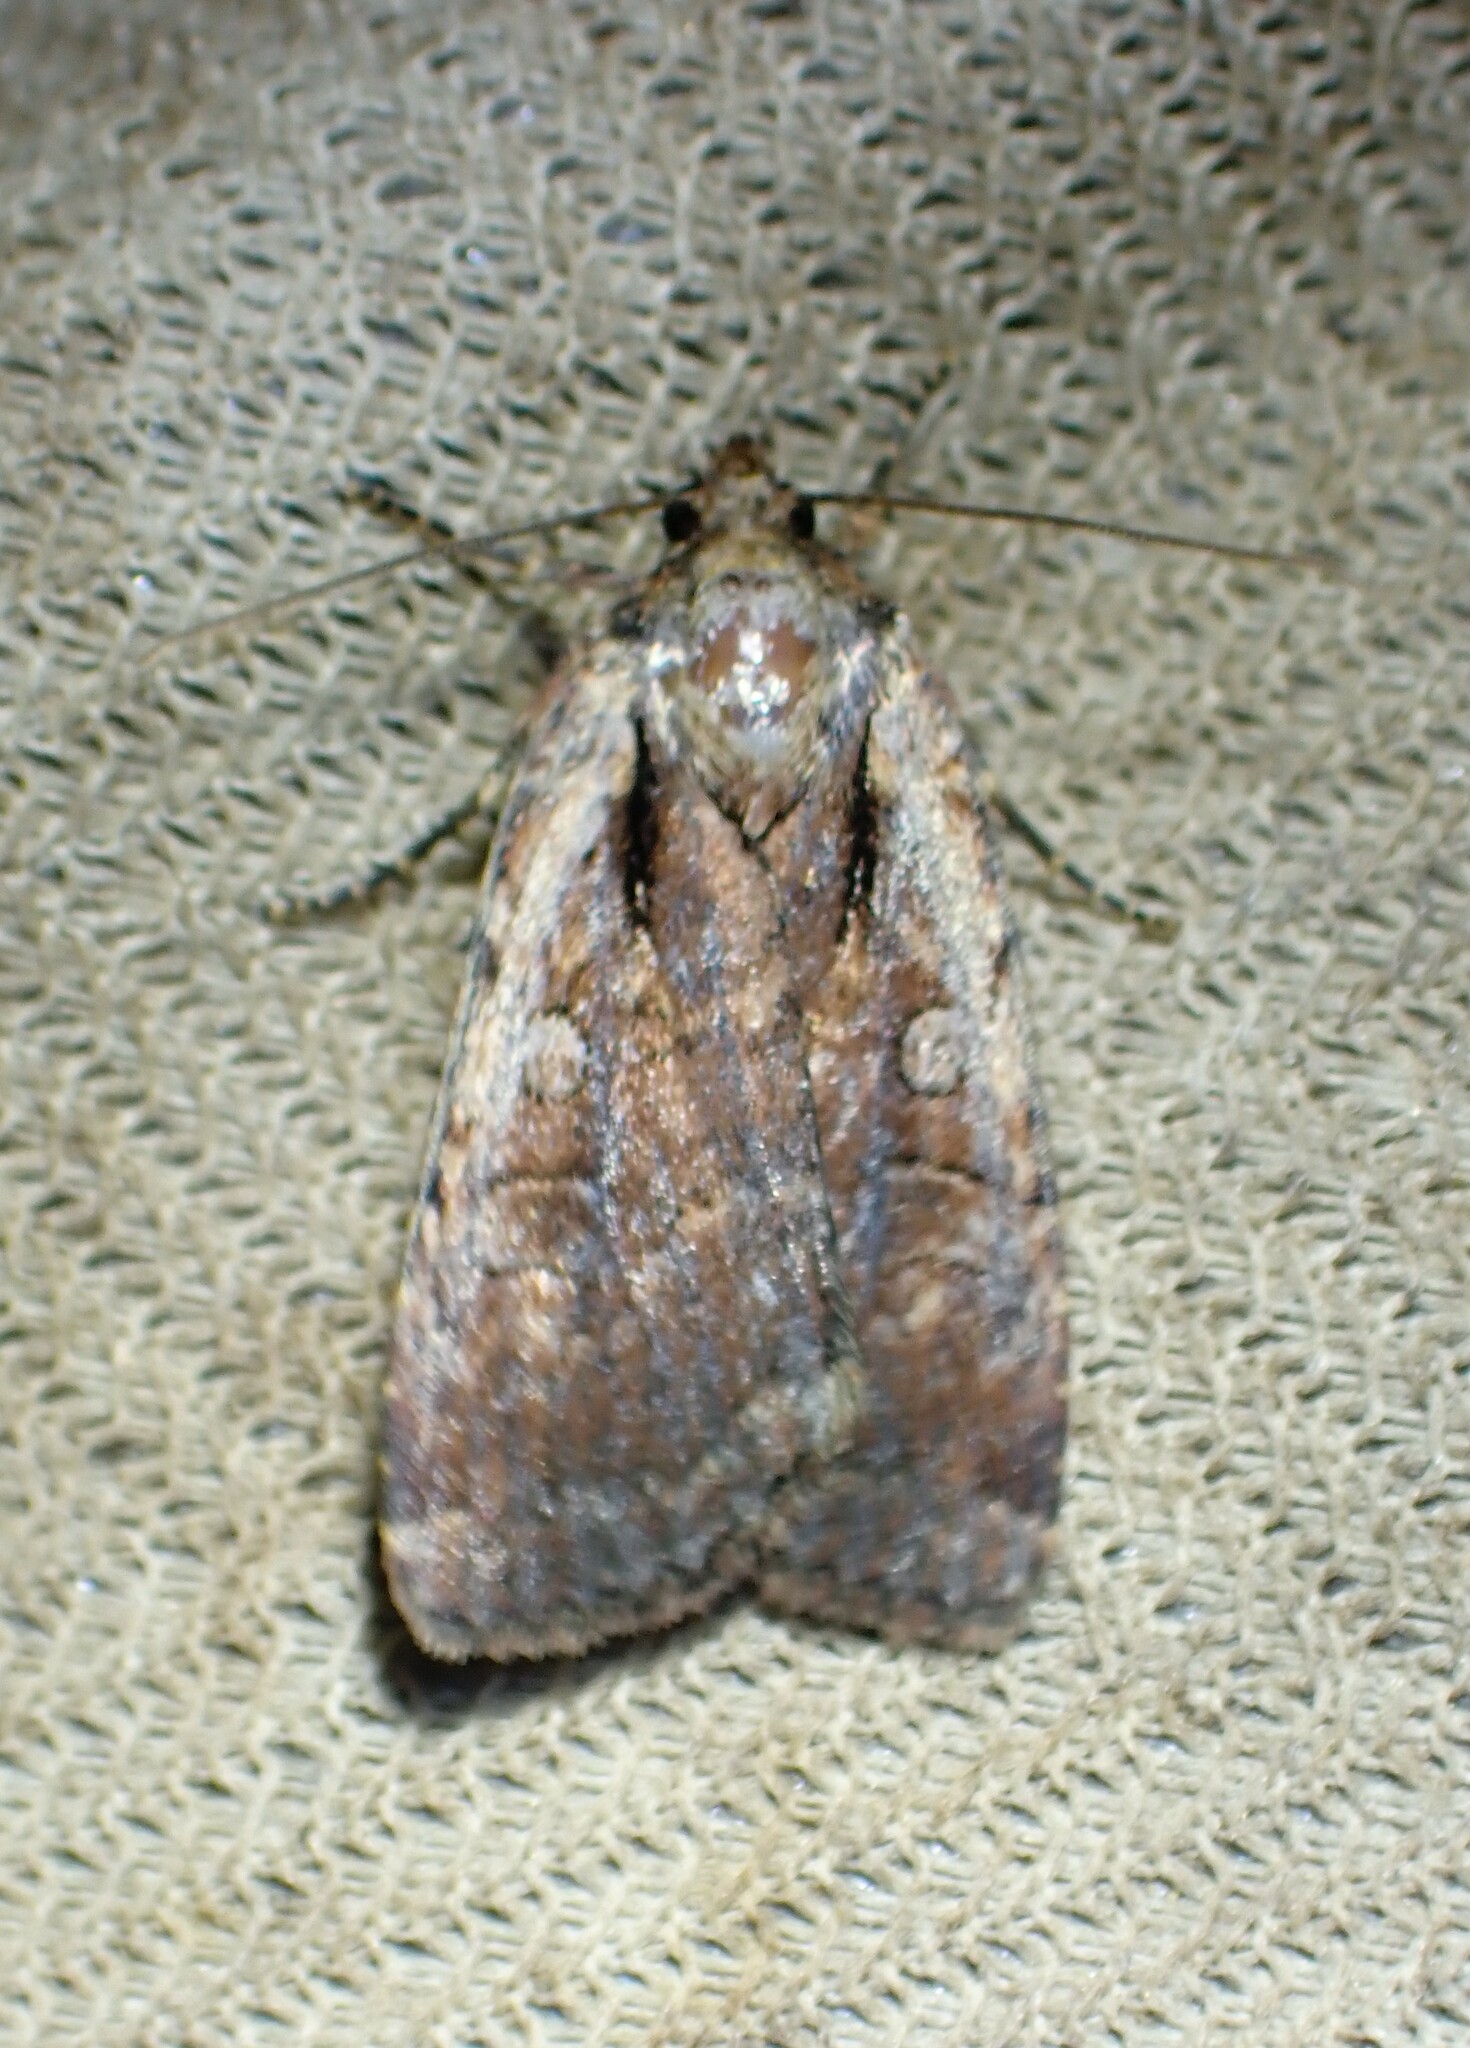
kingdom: Animalia
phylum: Arthropoda
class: Insecta
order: Lepidoptera
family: Noctuidae
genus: Eueretagrotis
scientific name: Eueretagrotis attentus
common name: Attentive dart
